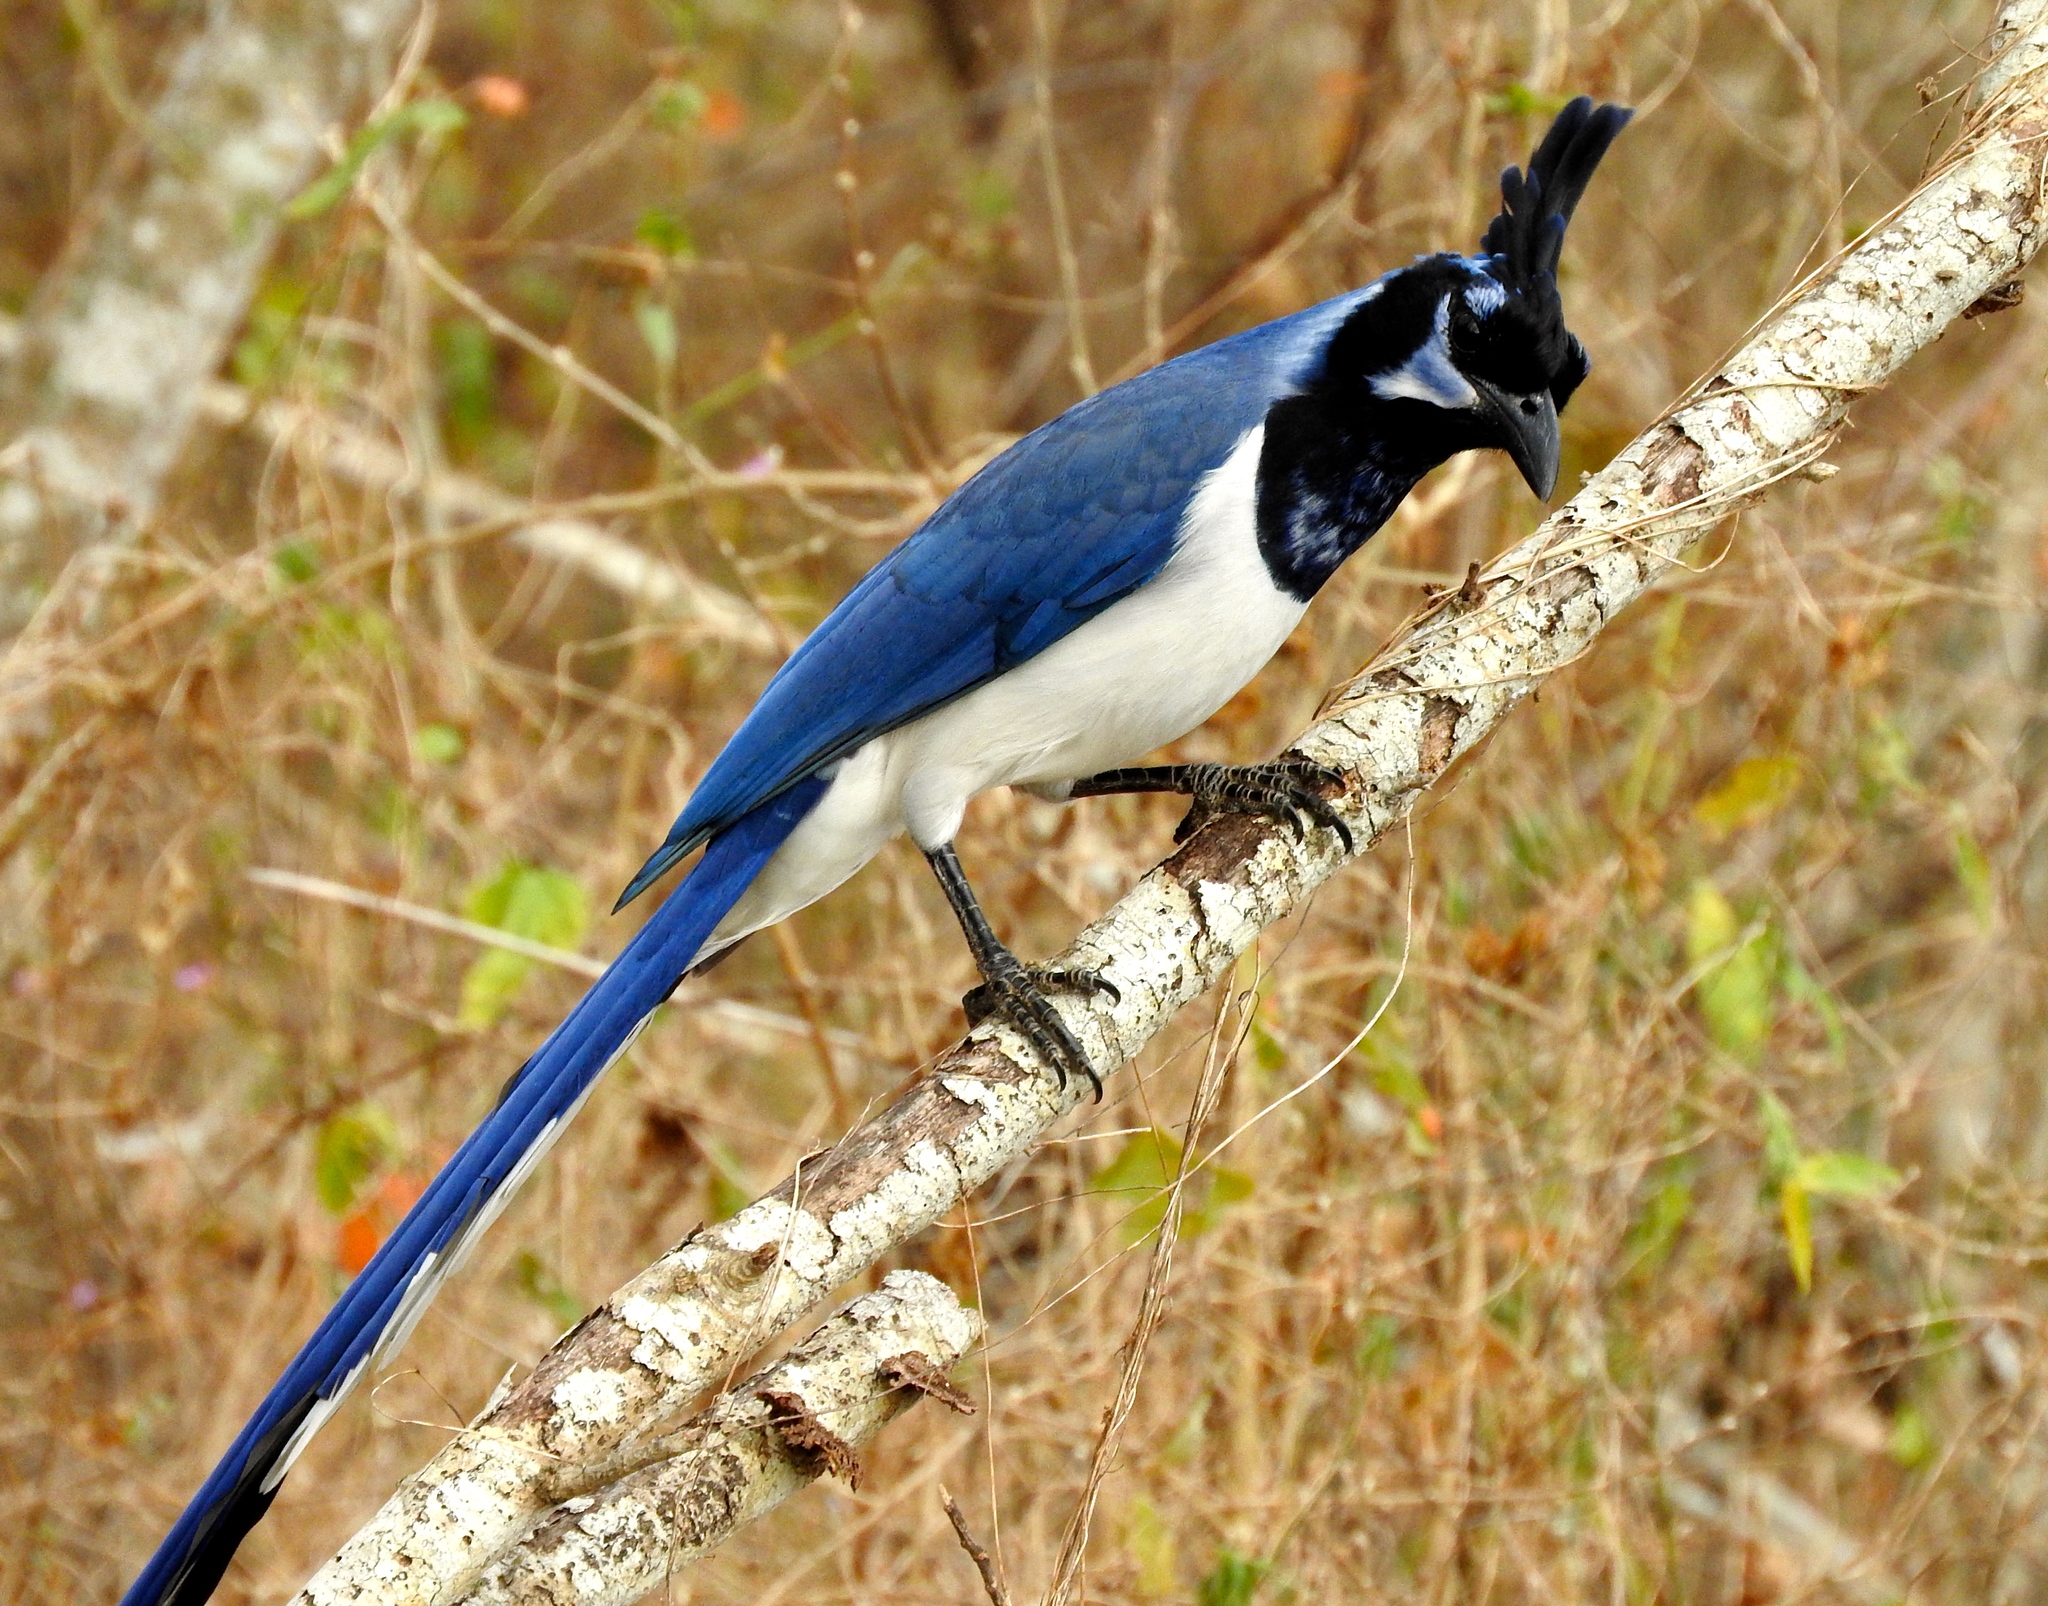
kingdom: Animalia
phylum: Chordata
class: Aves
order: Passeriformes
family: Corvidae
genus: Calocitta
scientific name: Calocitta colliei
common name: Black-throated magpie-jay
